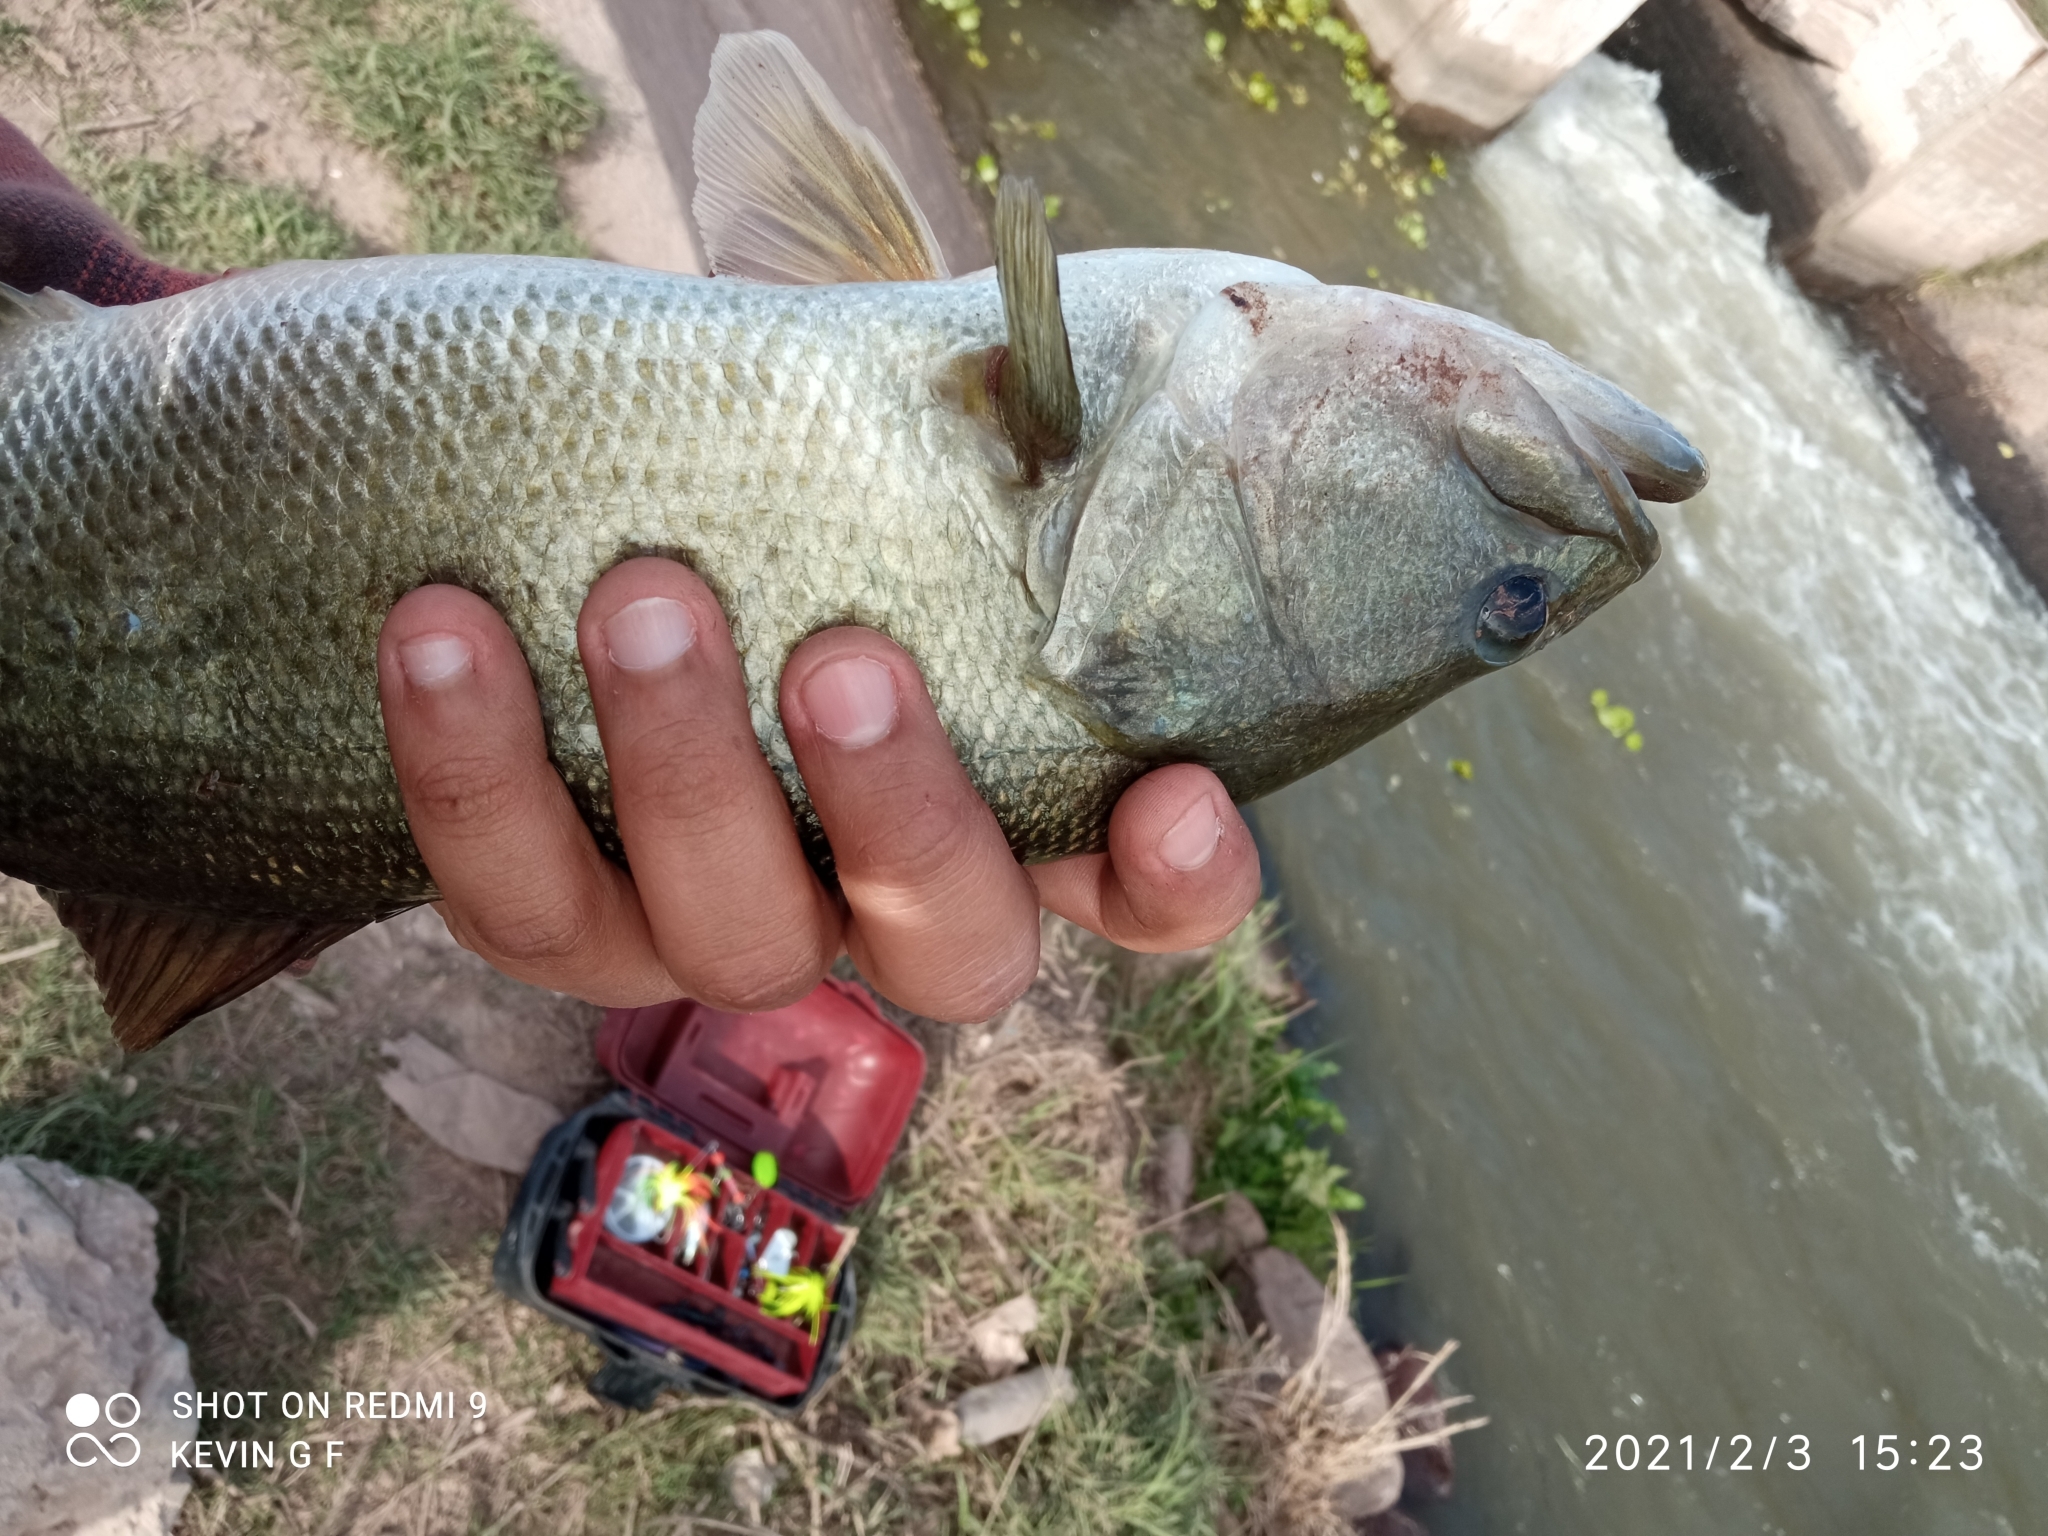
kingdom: Animalia
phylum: Chordata
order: Perciformes
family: Centrarchidae
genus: Micropterus
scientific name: Micropterus
